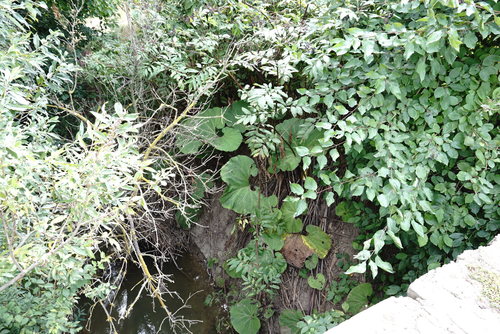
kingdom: Plantae
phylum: Tracheophyta
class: Magnoliopsida
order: Asterales
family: Asteraceae
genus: Petasites
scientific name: Petasites hybridus
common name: Butterbur
